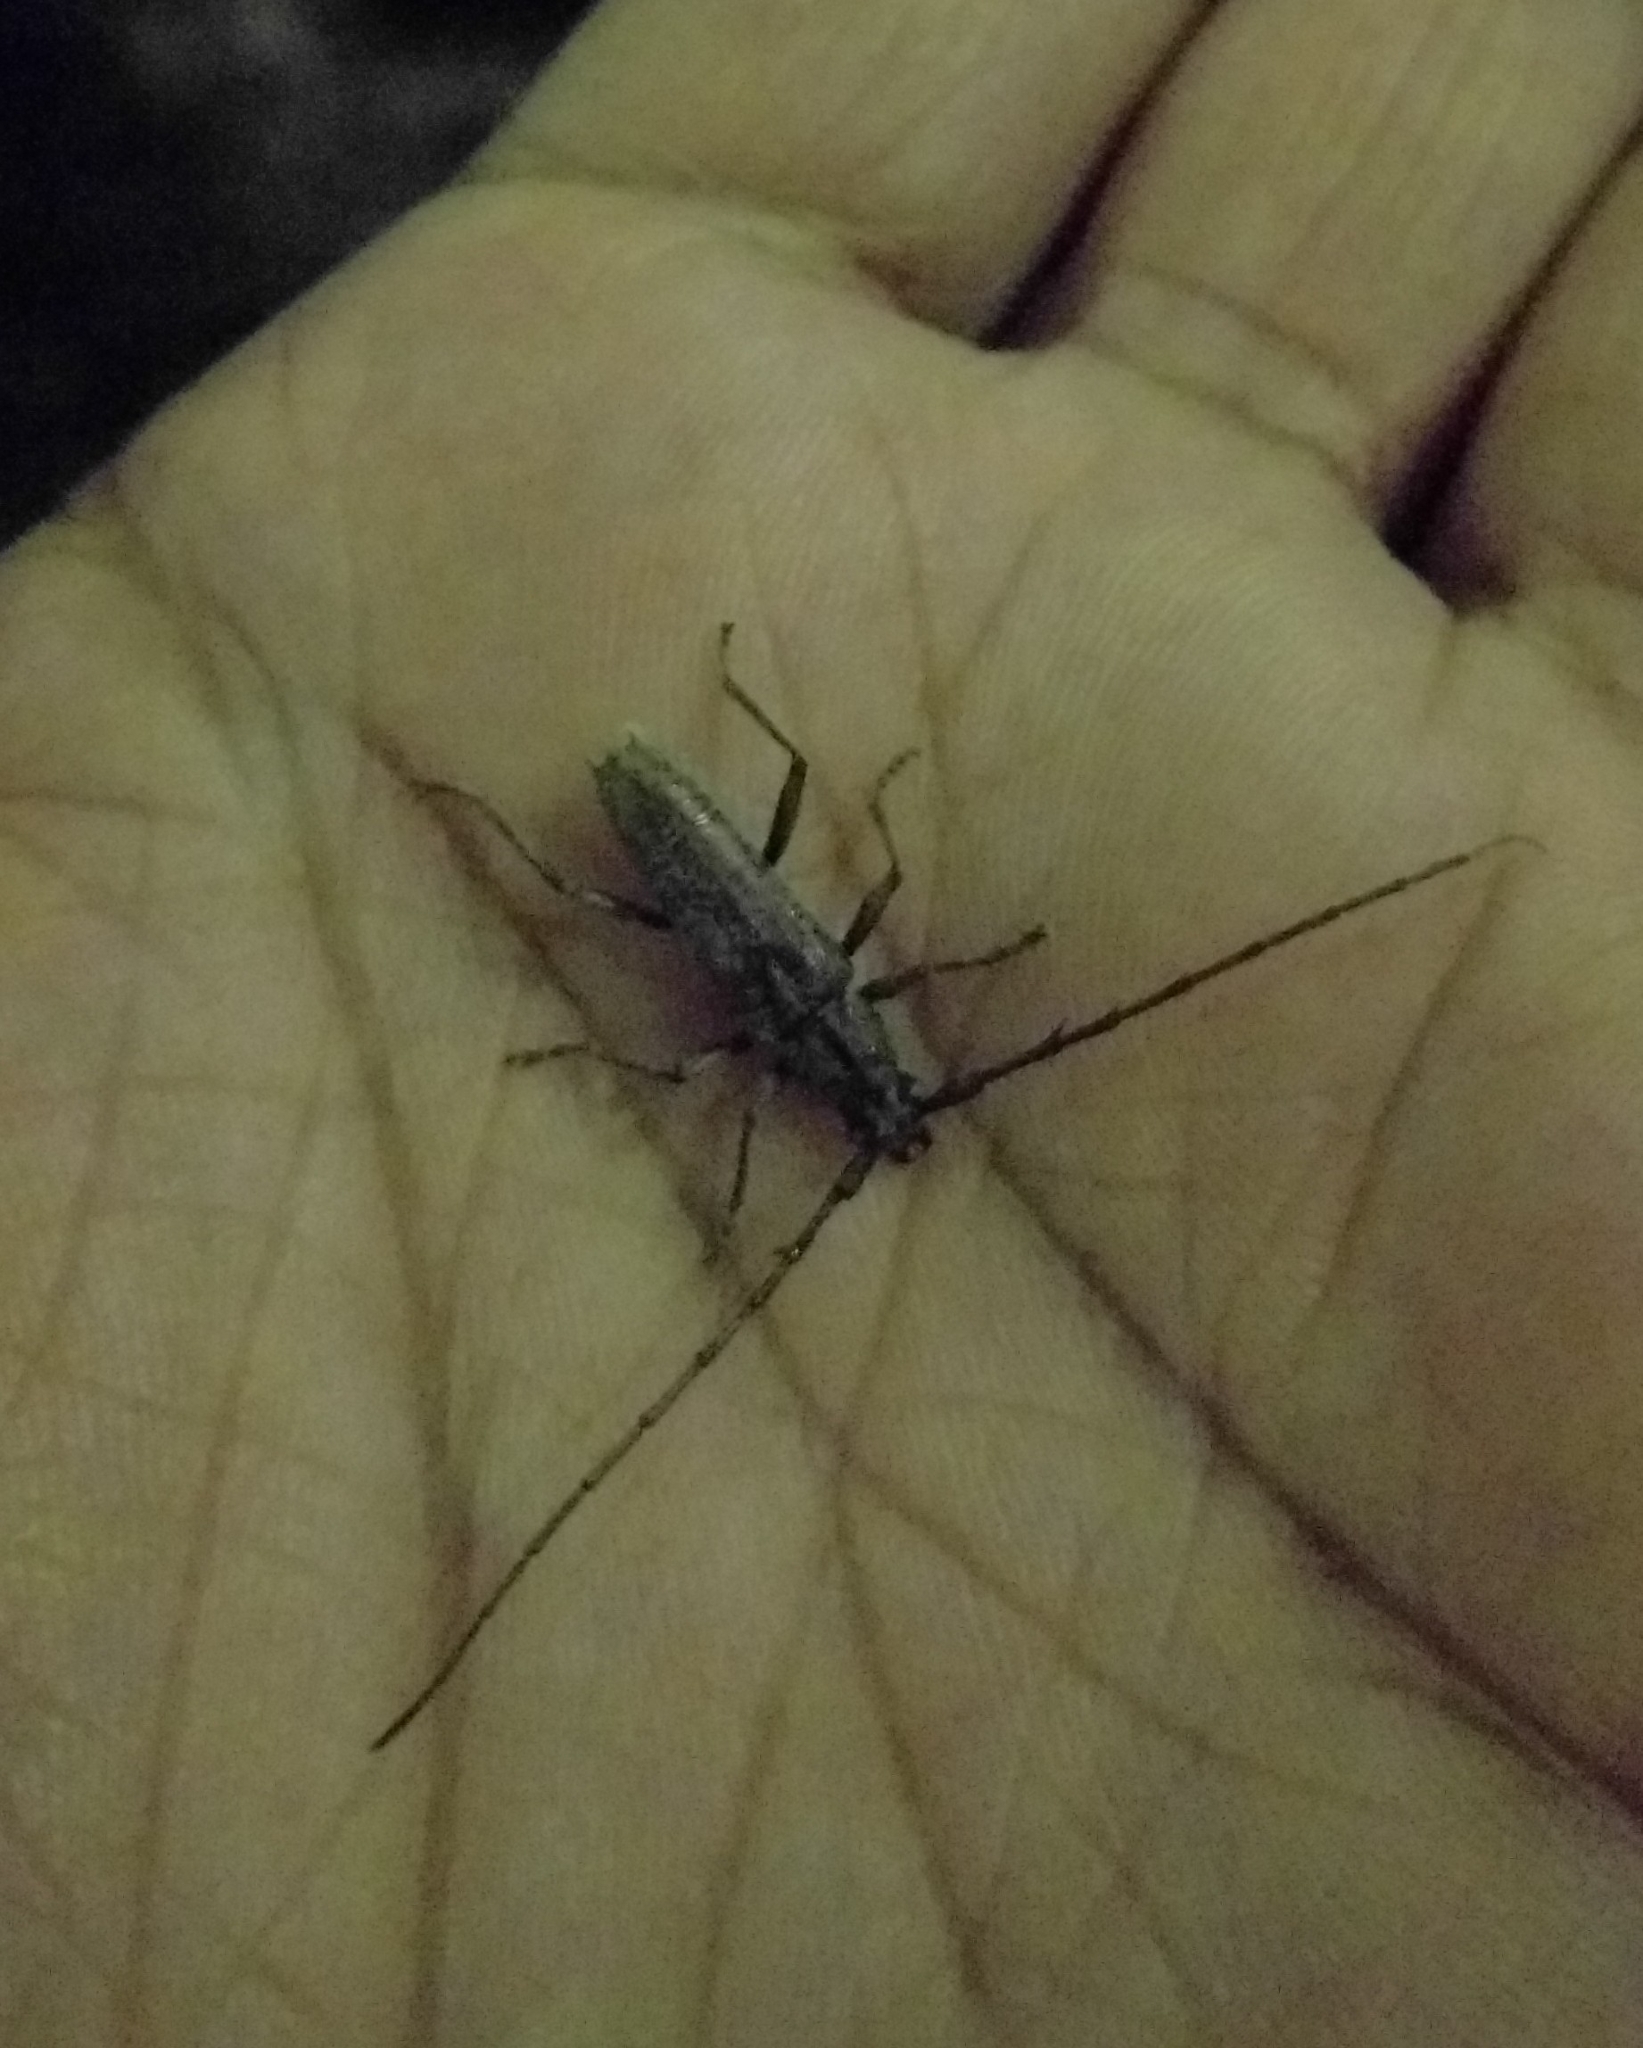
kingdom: Animalia
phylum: Arthropoda
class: Insecta
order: Coleoptera
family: Cerambycidae
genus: Elaphidion
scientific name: Elaphidion mucronatum
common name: Spined oak borer
